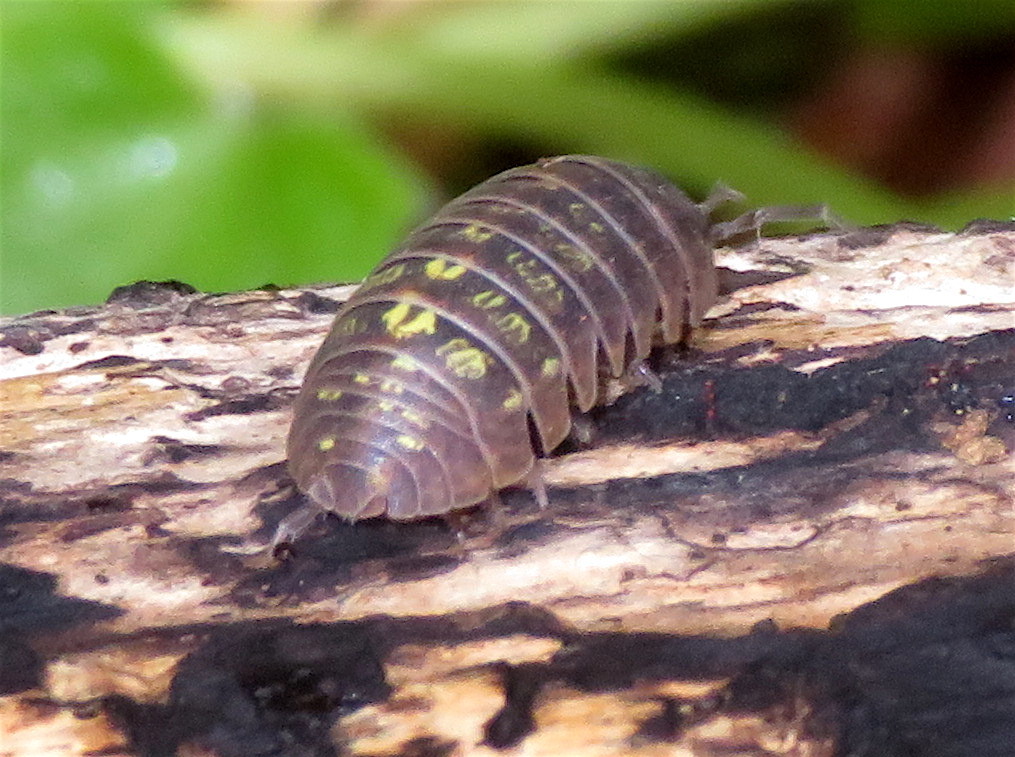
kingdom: Animalia
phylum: Arthropoda
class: Malacostraca
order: Isopoda
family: Armadillidiidae
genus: Armadillidium
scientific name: Armadillidium vulgare
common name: Common pill woodlouse
